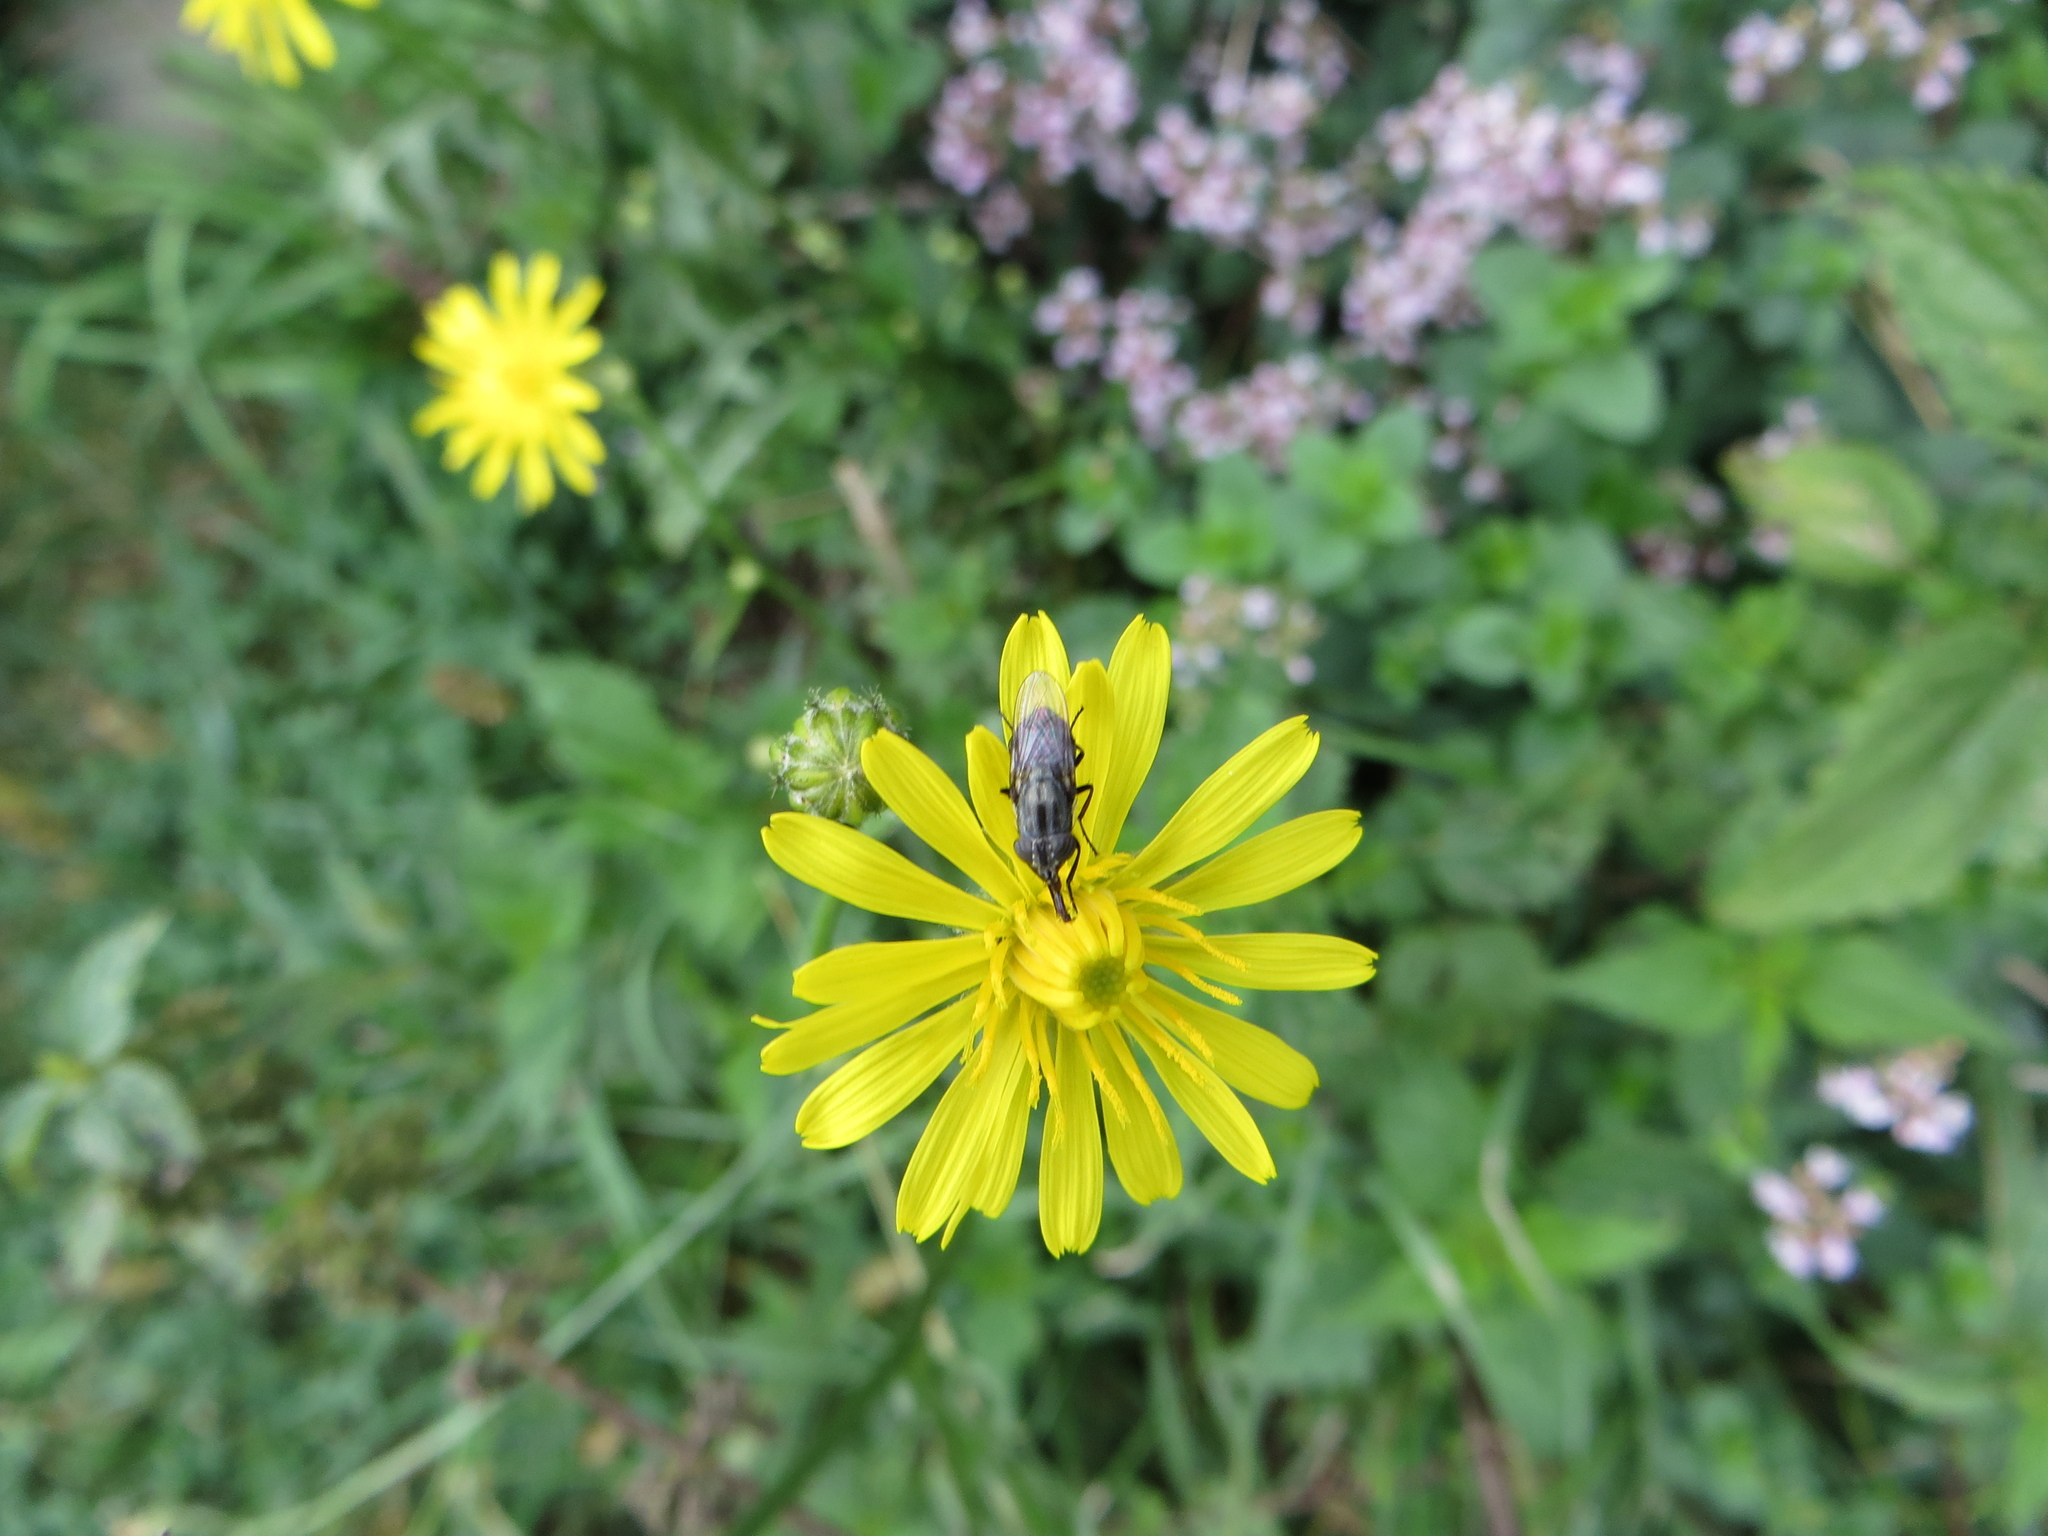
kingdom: Animalia
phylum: Arthropoda
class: Insecta
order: Diptera
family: Calliphoridae
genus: Stomorhina
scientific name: Stomorhina lunata
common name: Locust blowfly
